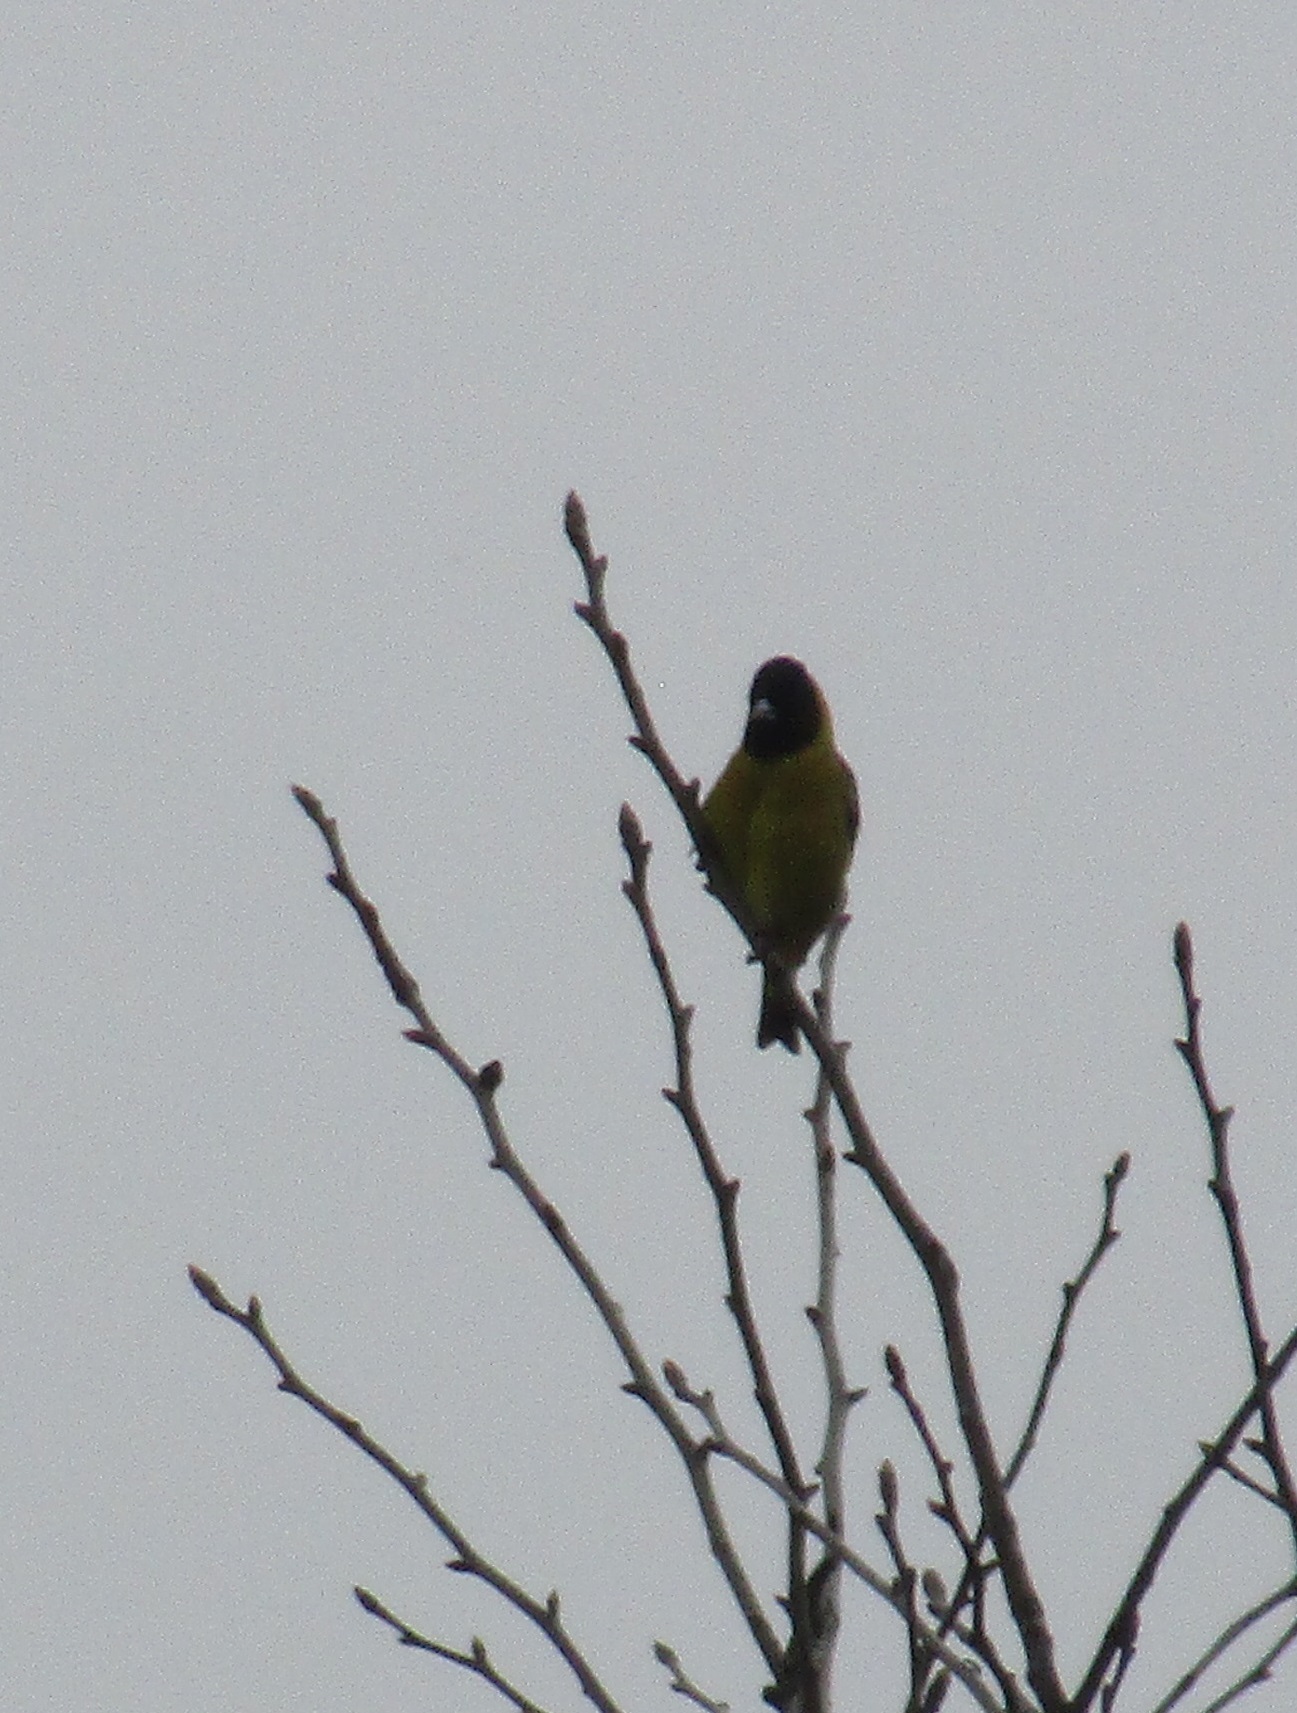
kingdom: Animalia
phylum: Chordata
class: Aves
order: Passeriformes
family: Fringillidae
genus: Spinus
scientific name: Spinus notatus
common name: Black-headed siskin
